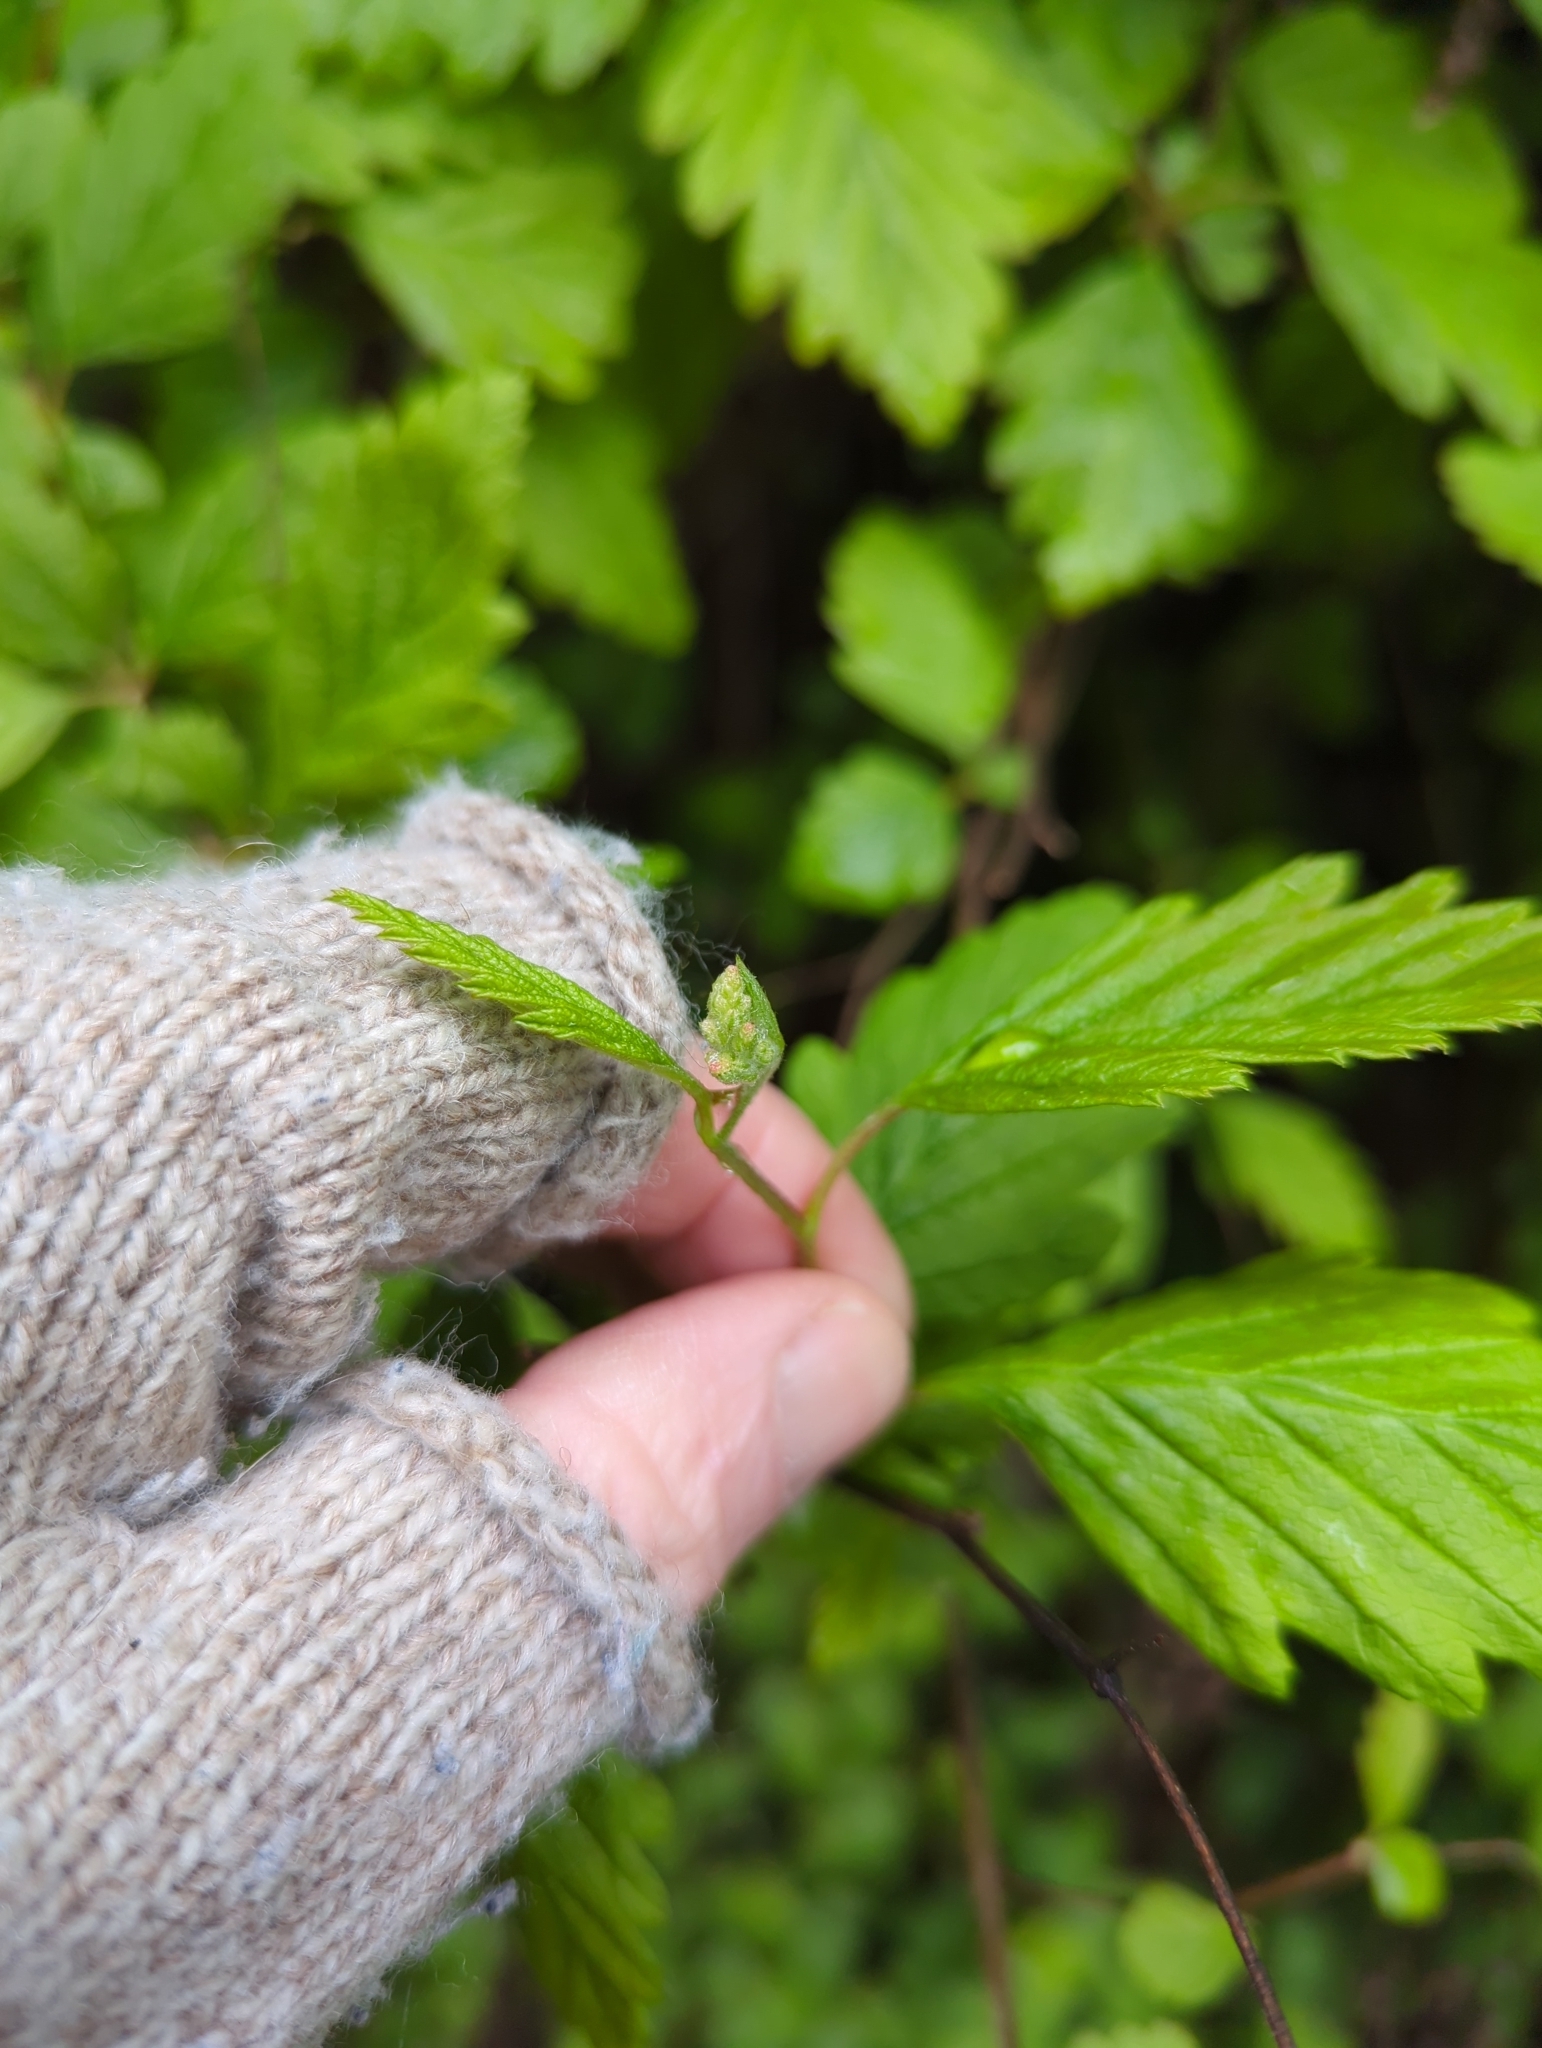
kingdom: Plantae
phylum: Tracheophyta
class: Magnoliopsida
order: Rosales
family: Rosaceae
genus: Holodiscus
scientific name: Holodiscus discolor
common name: Oceanspray
